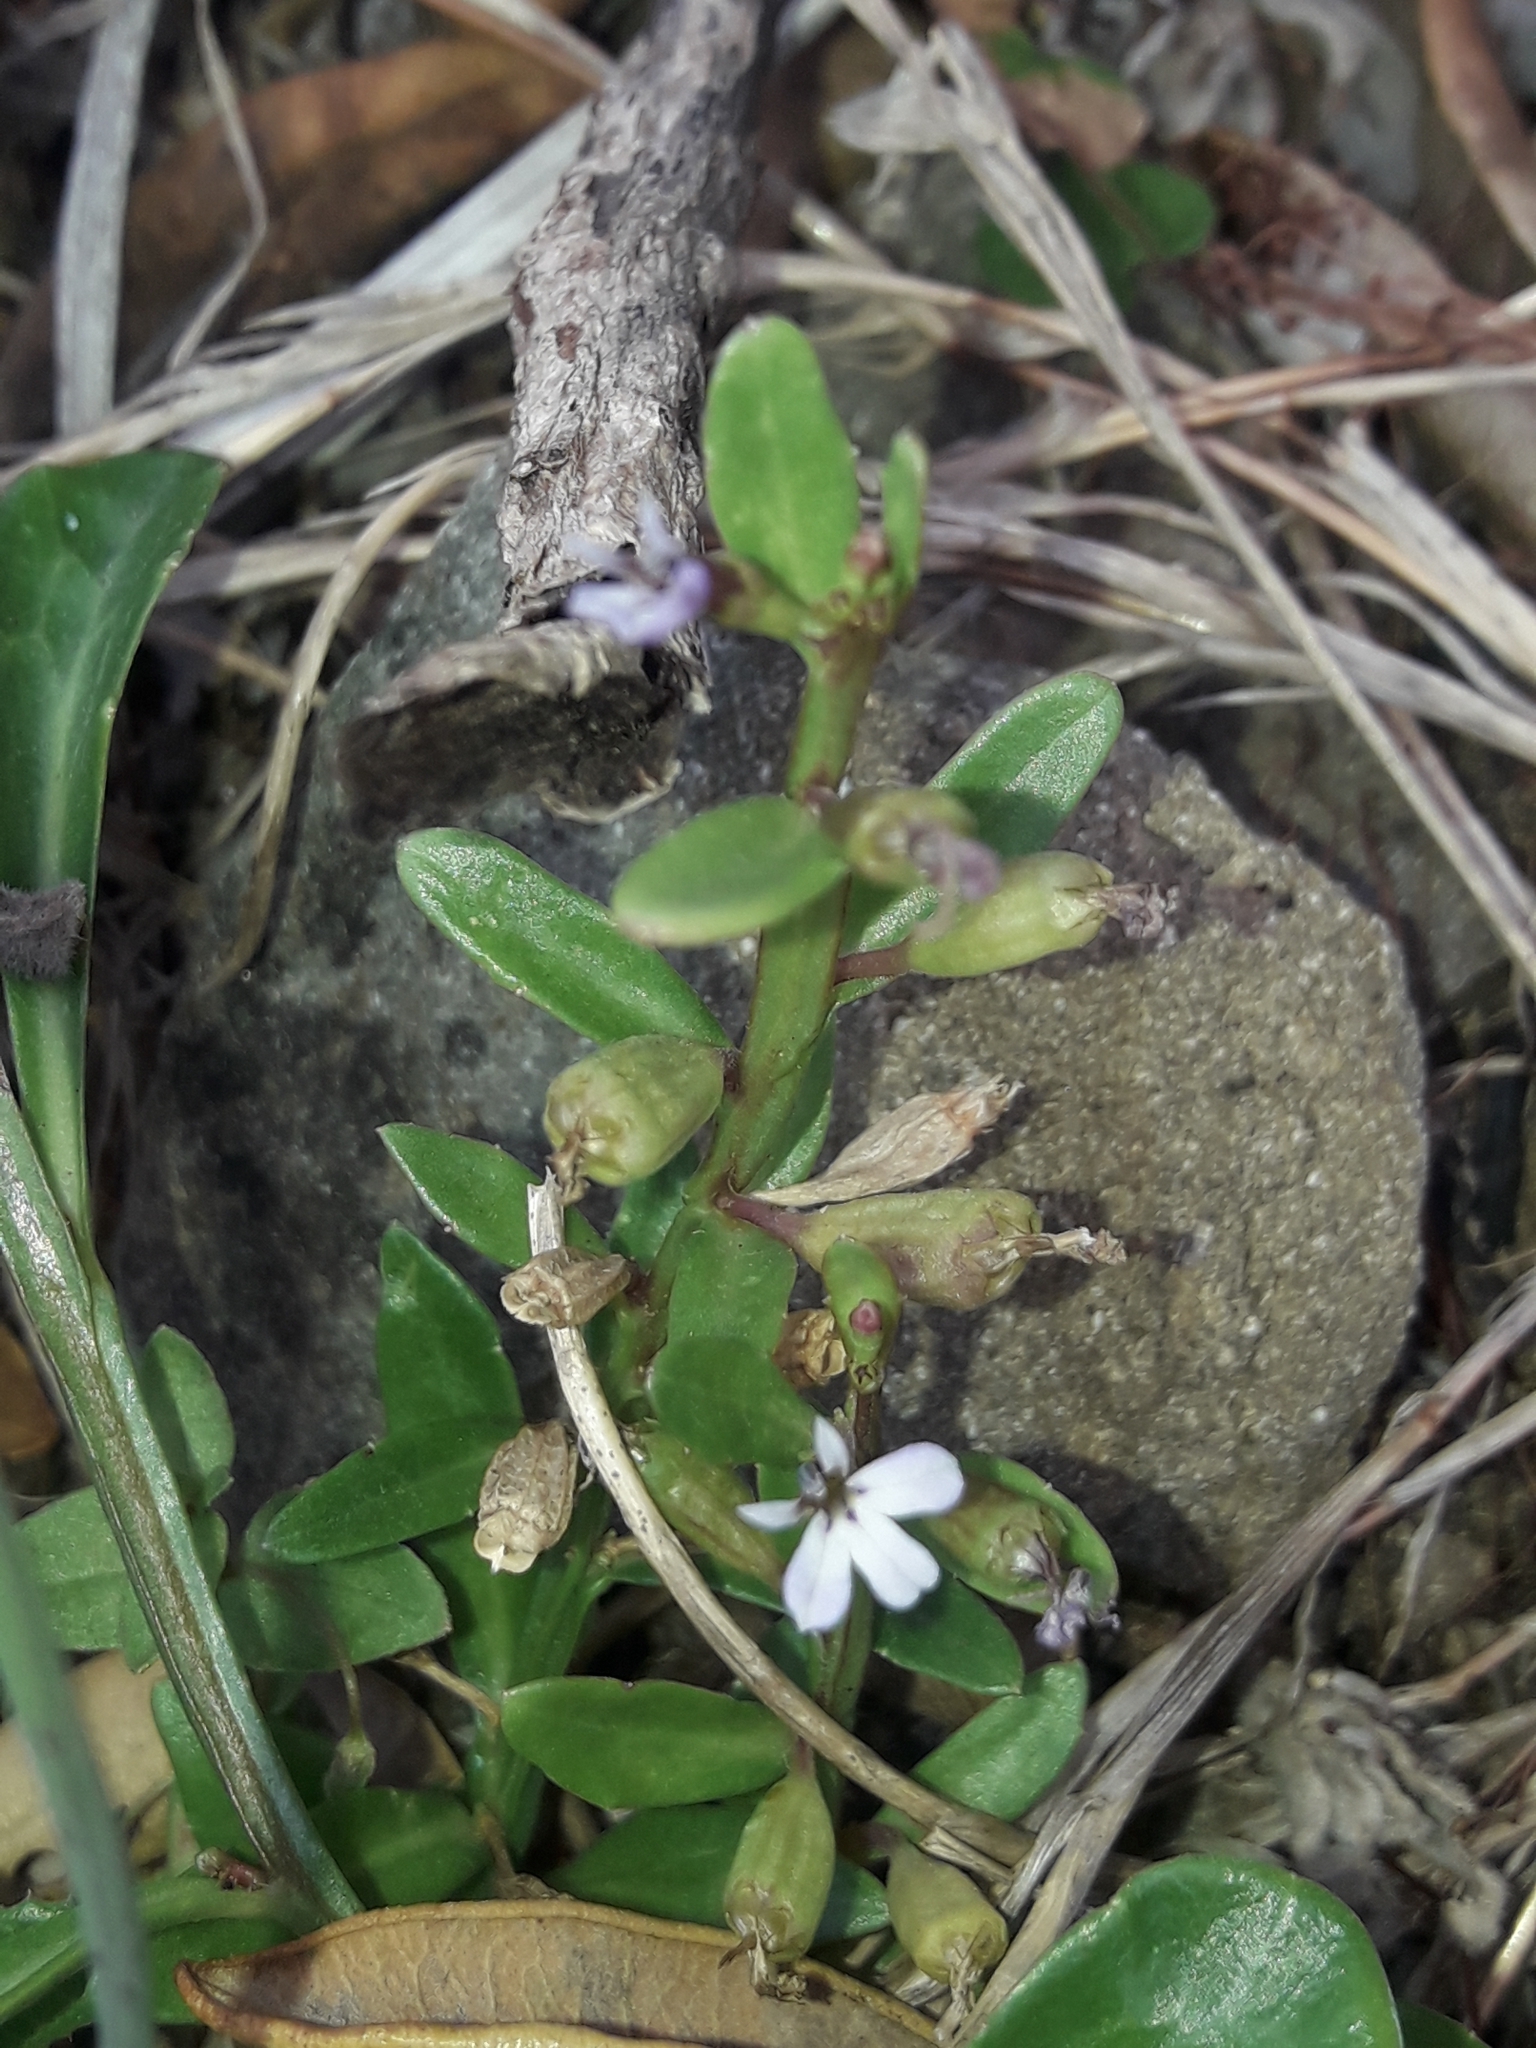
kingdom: Plantae
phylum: Tracheophyta
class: Magnoliopsida
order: Asterales
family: Campanulaceae
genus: Lobelia
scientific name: Lobelia anceps
